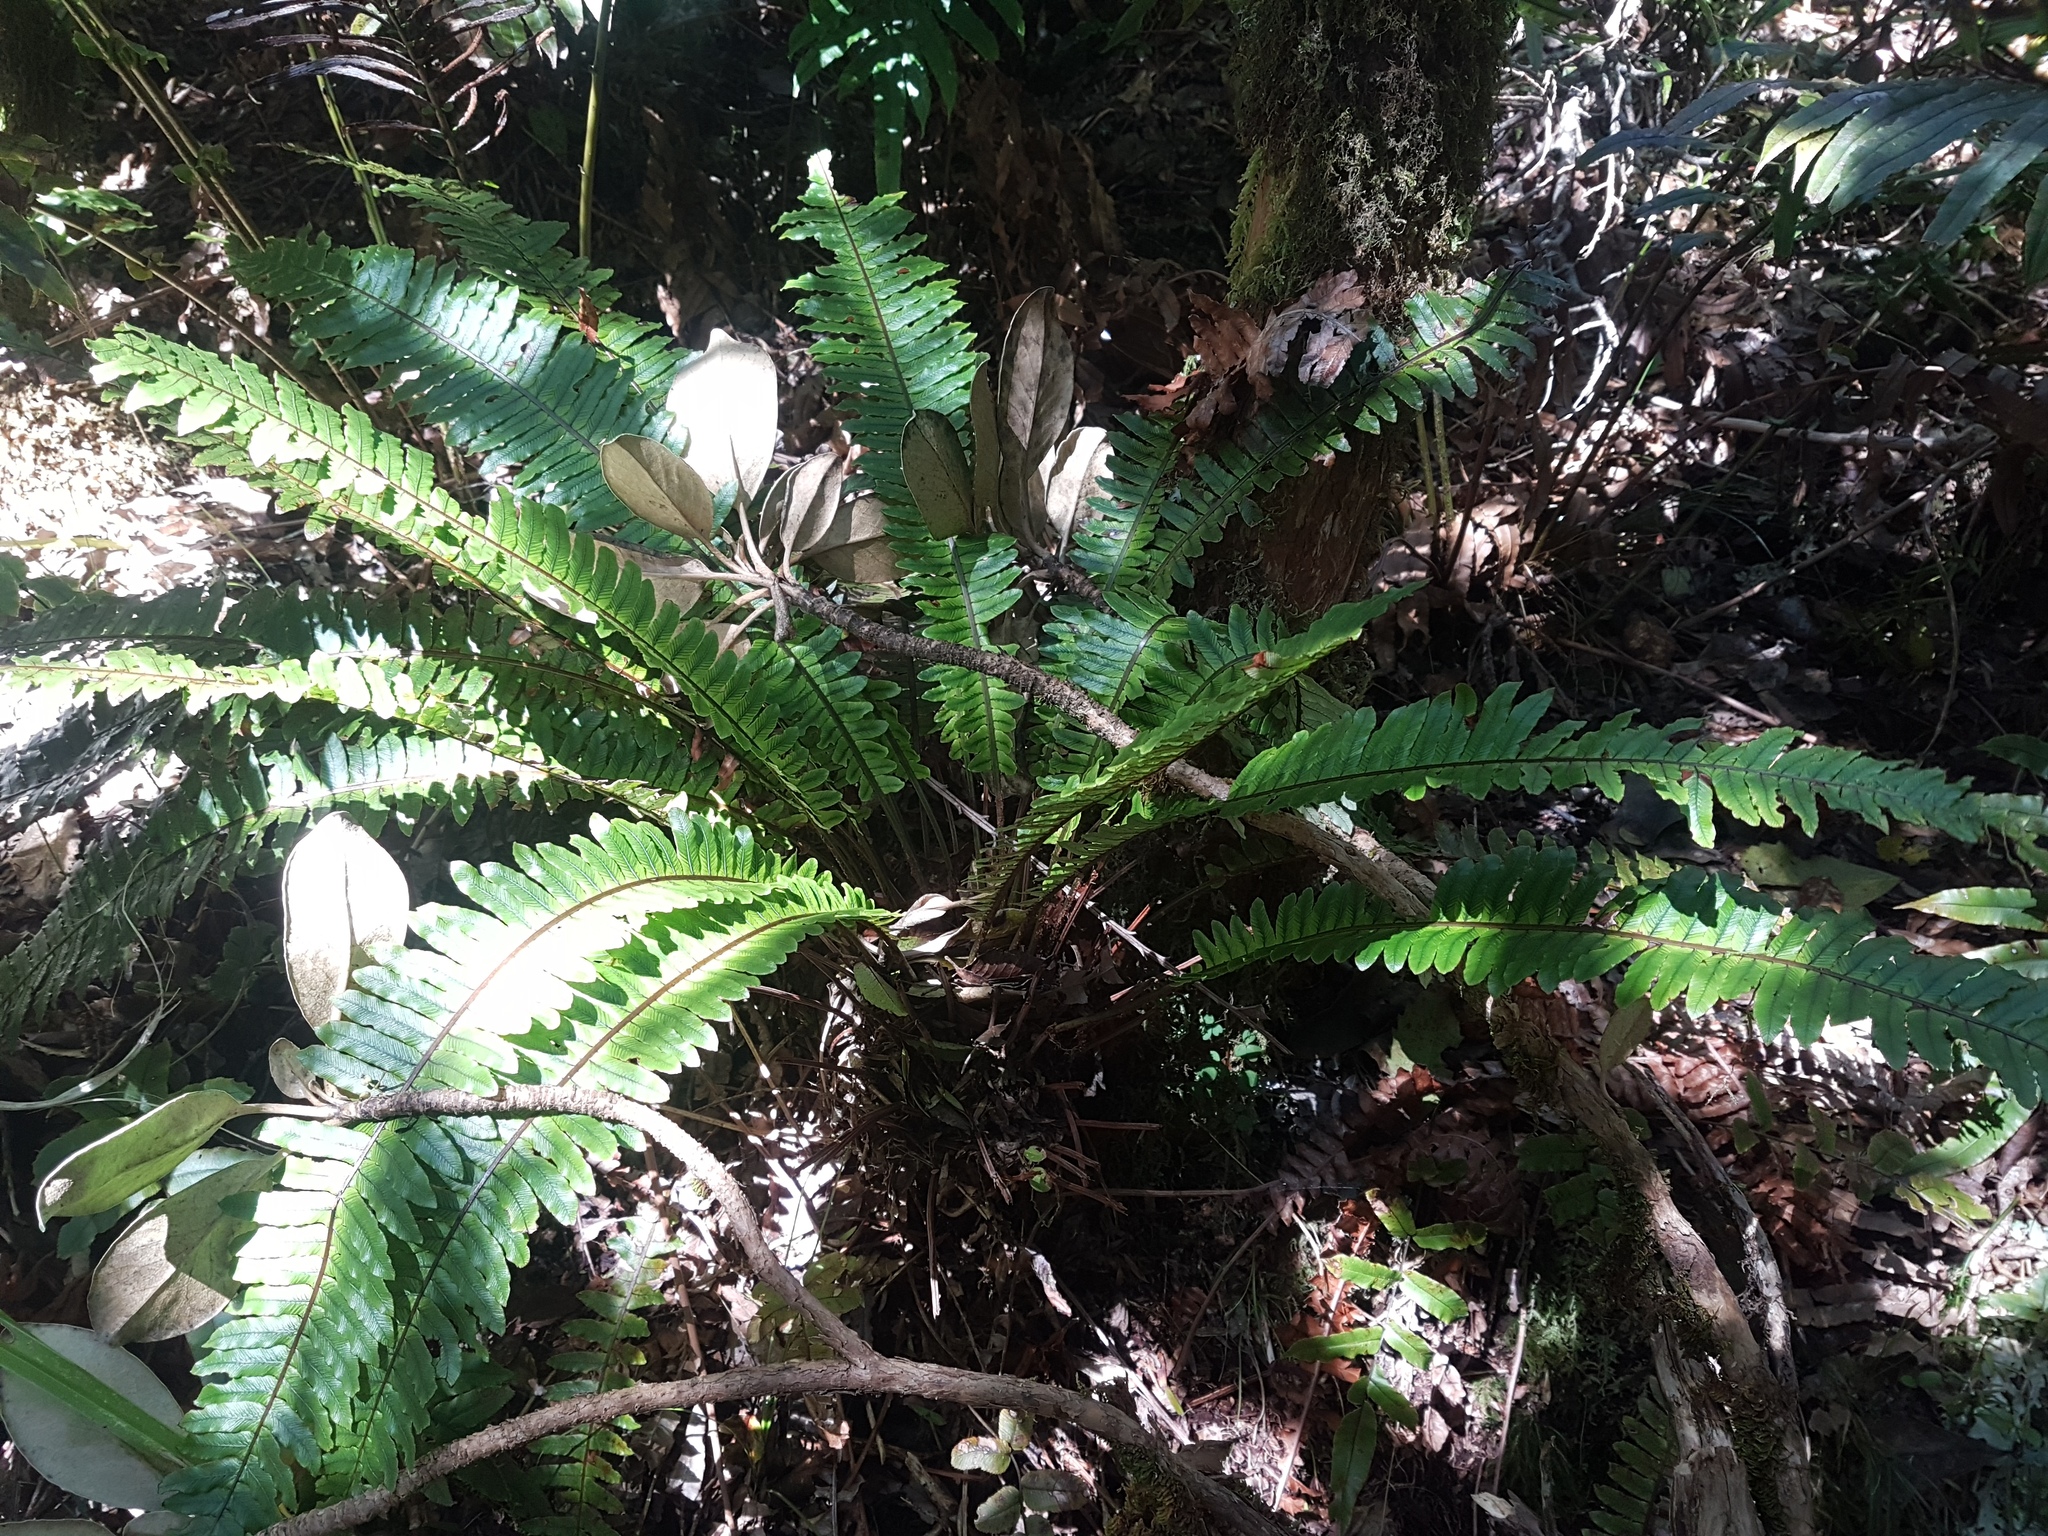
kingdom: Plantae
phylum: Tracheophyta
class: Polypodiopsida
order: Polypodiales
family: Blechnaceae
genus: Lomaria
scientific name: Lomaria discolor
